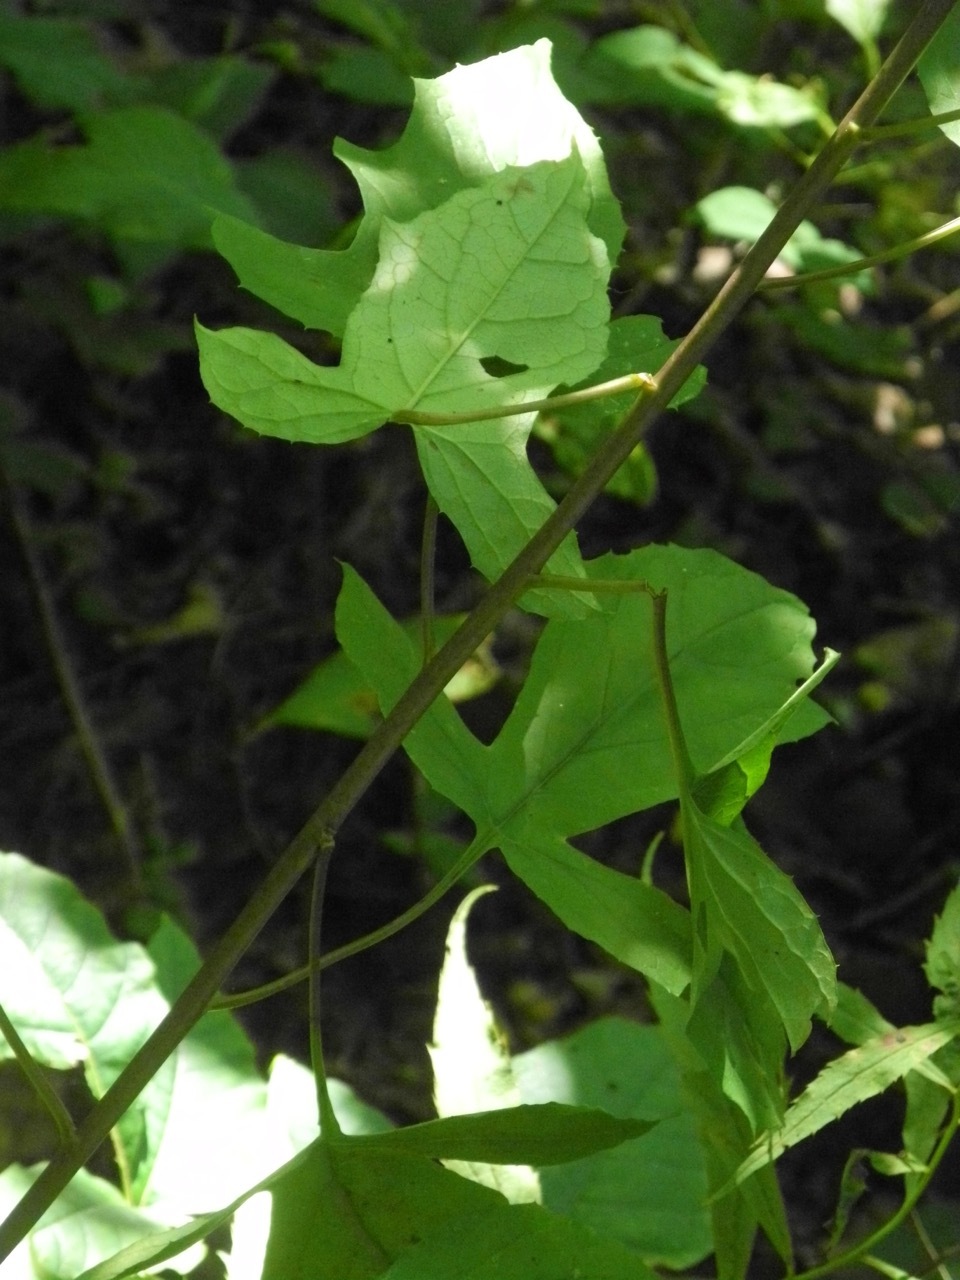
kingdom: Plantae
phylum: Tracheophyta
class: Magnoliopsida
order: Asterales
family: Asteraceae
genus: Nabalus
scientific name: Nabalus albus
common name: White rattlesnakeroot
